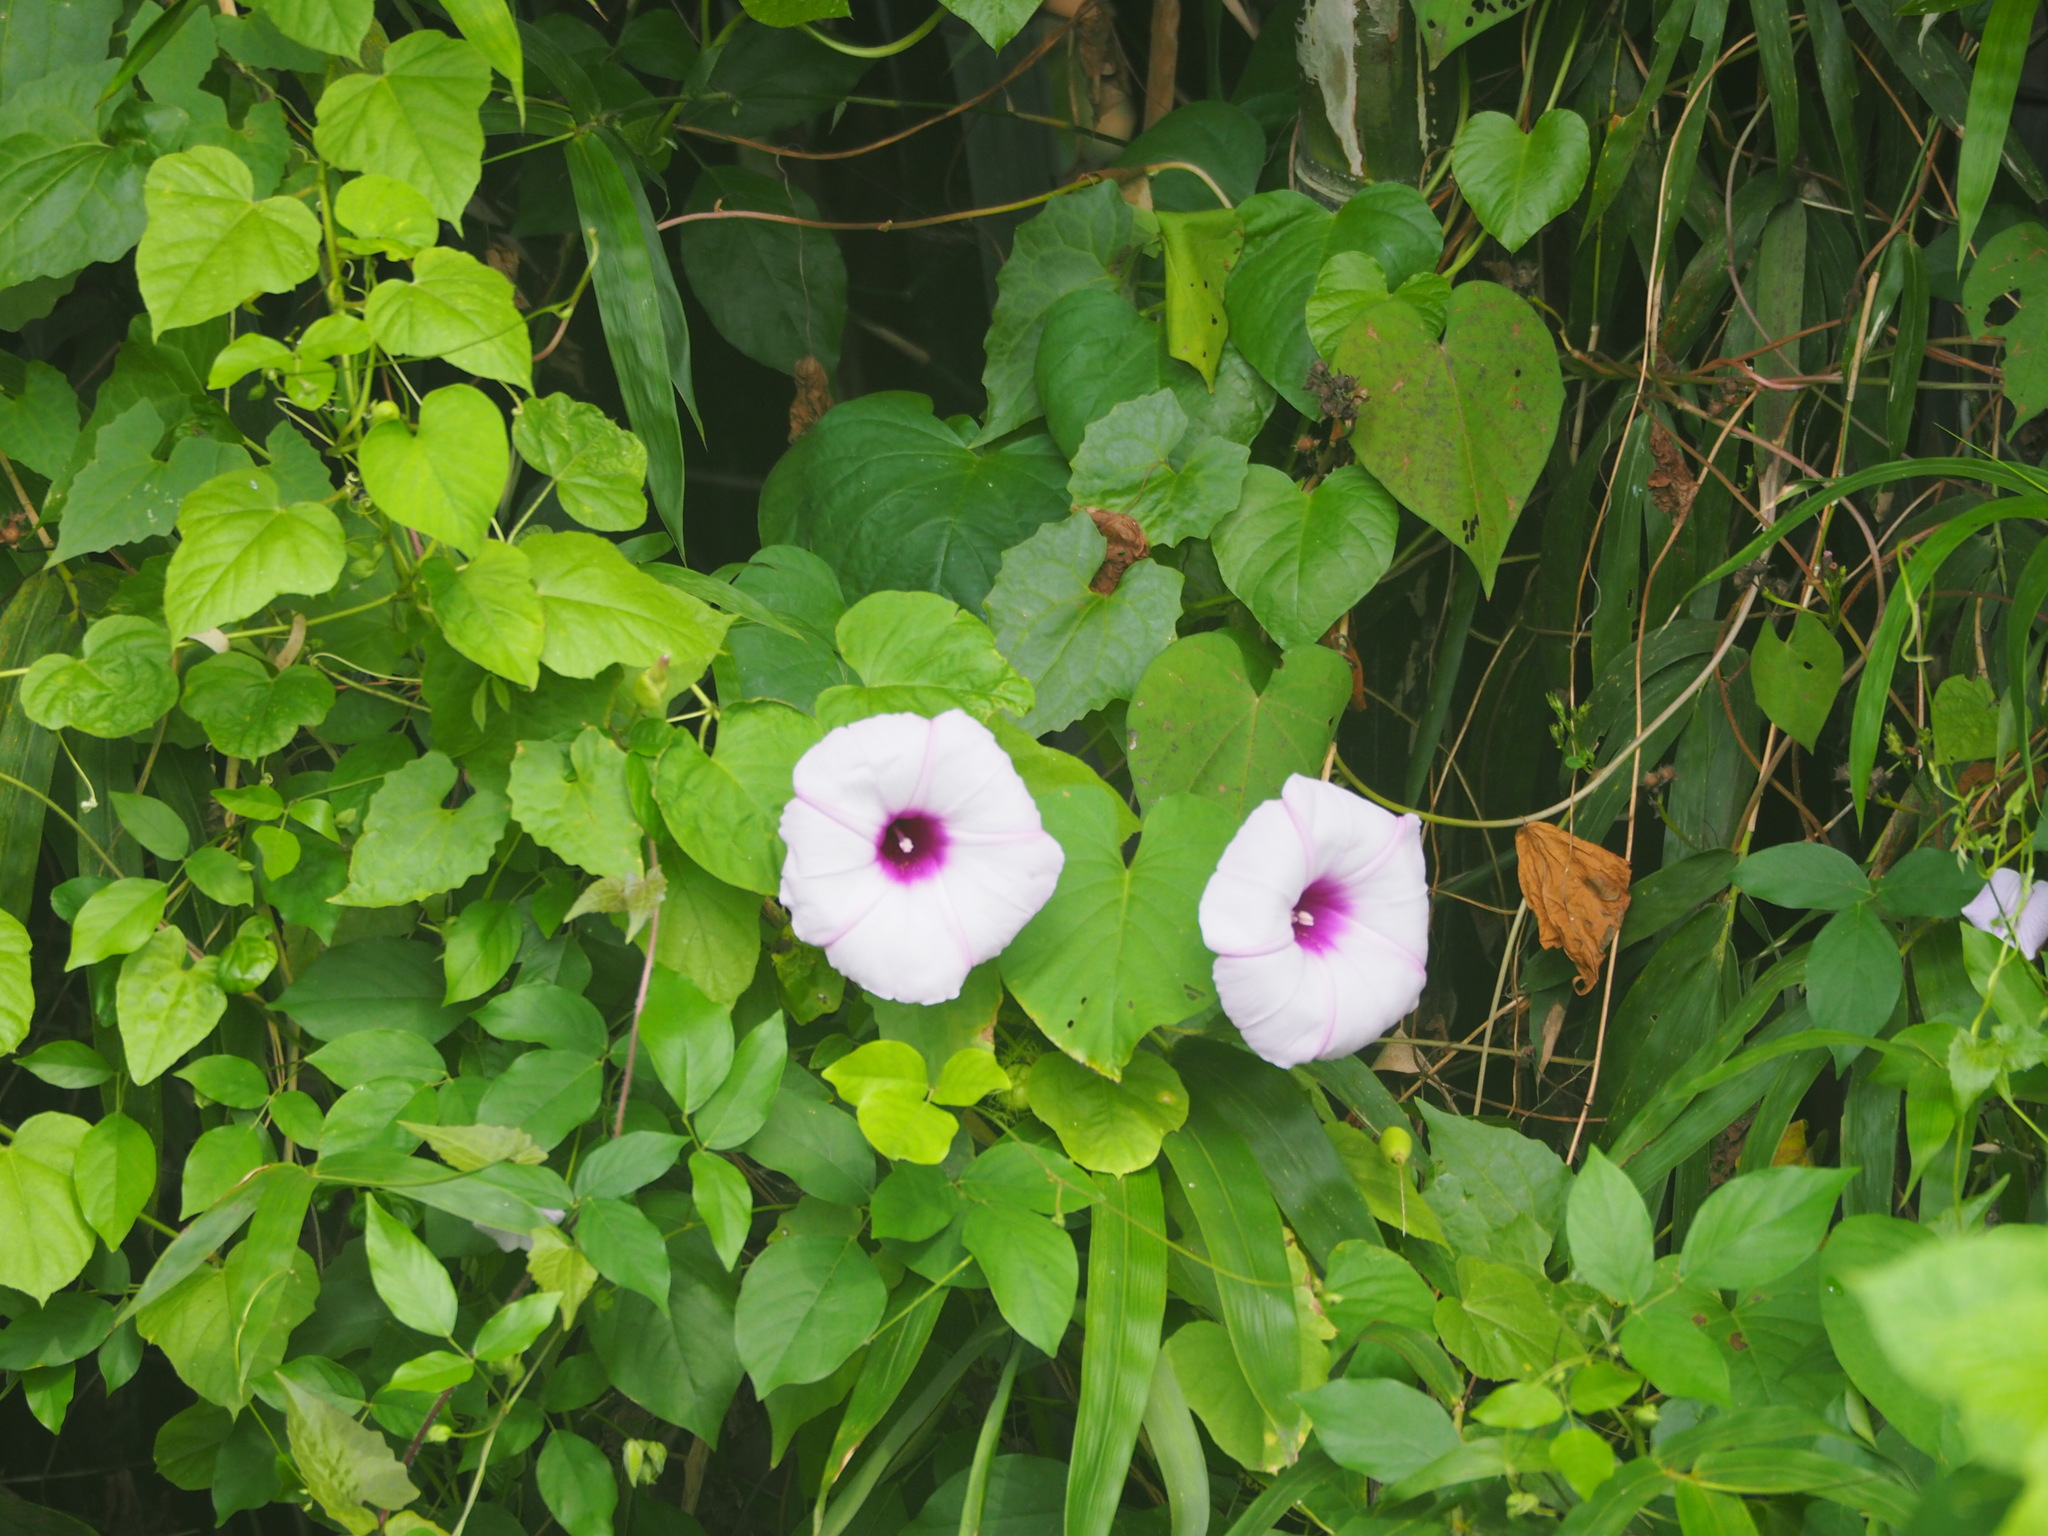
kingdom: Plantae
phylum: Tracheophyta
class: Magnoliopsida
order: Solanales
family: Convolvulaceae
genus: Stictocardia
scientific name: Stictocardia tiliifolia
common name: Spottedheart
